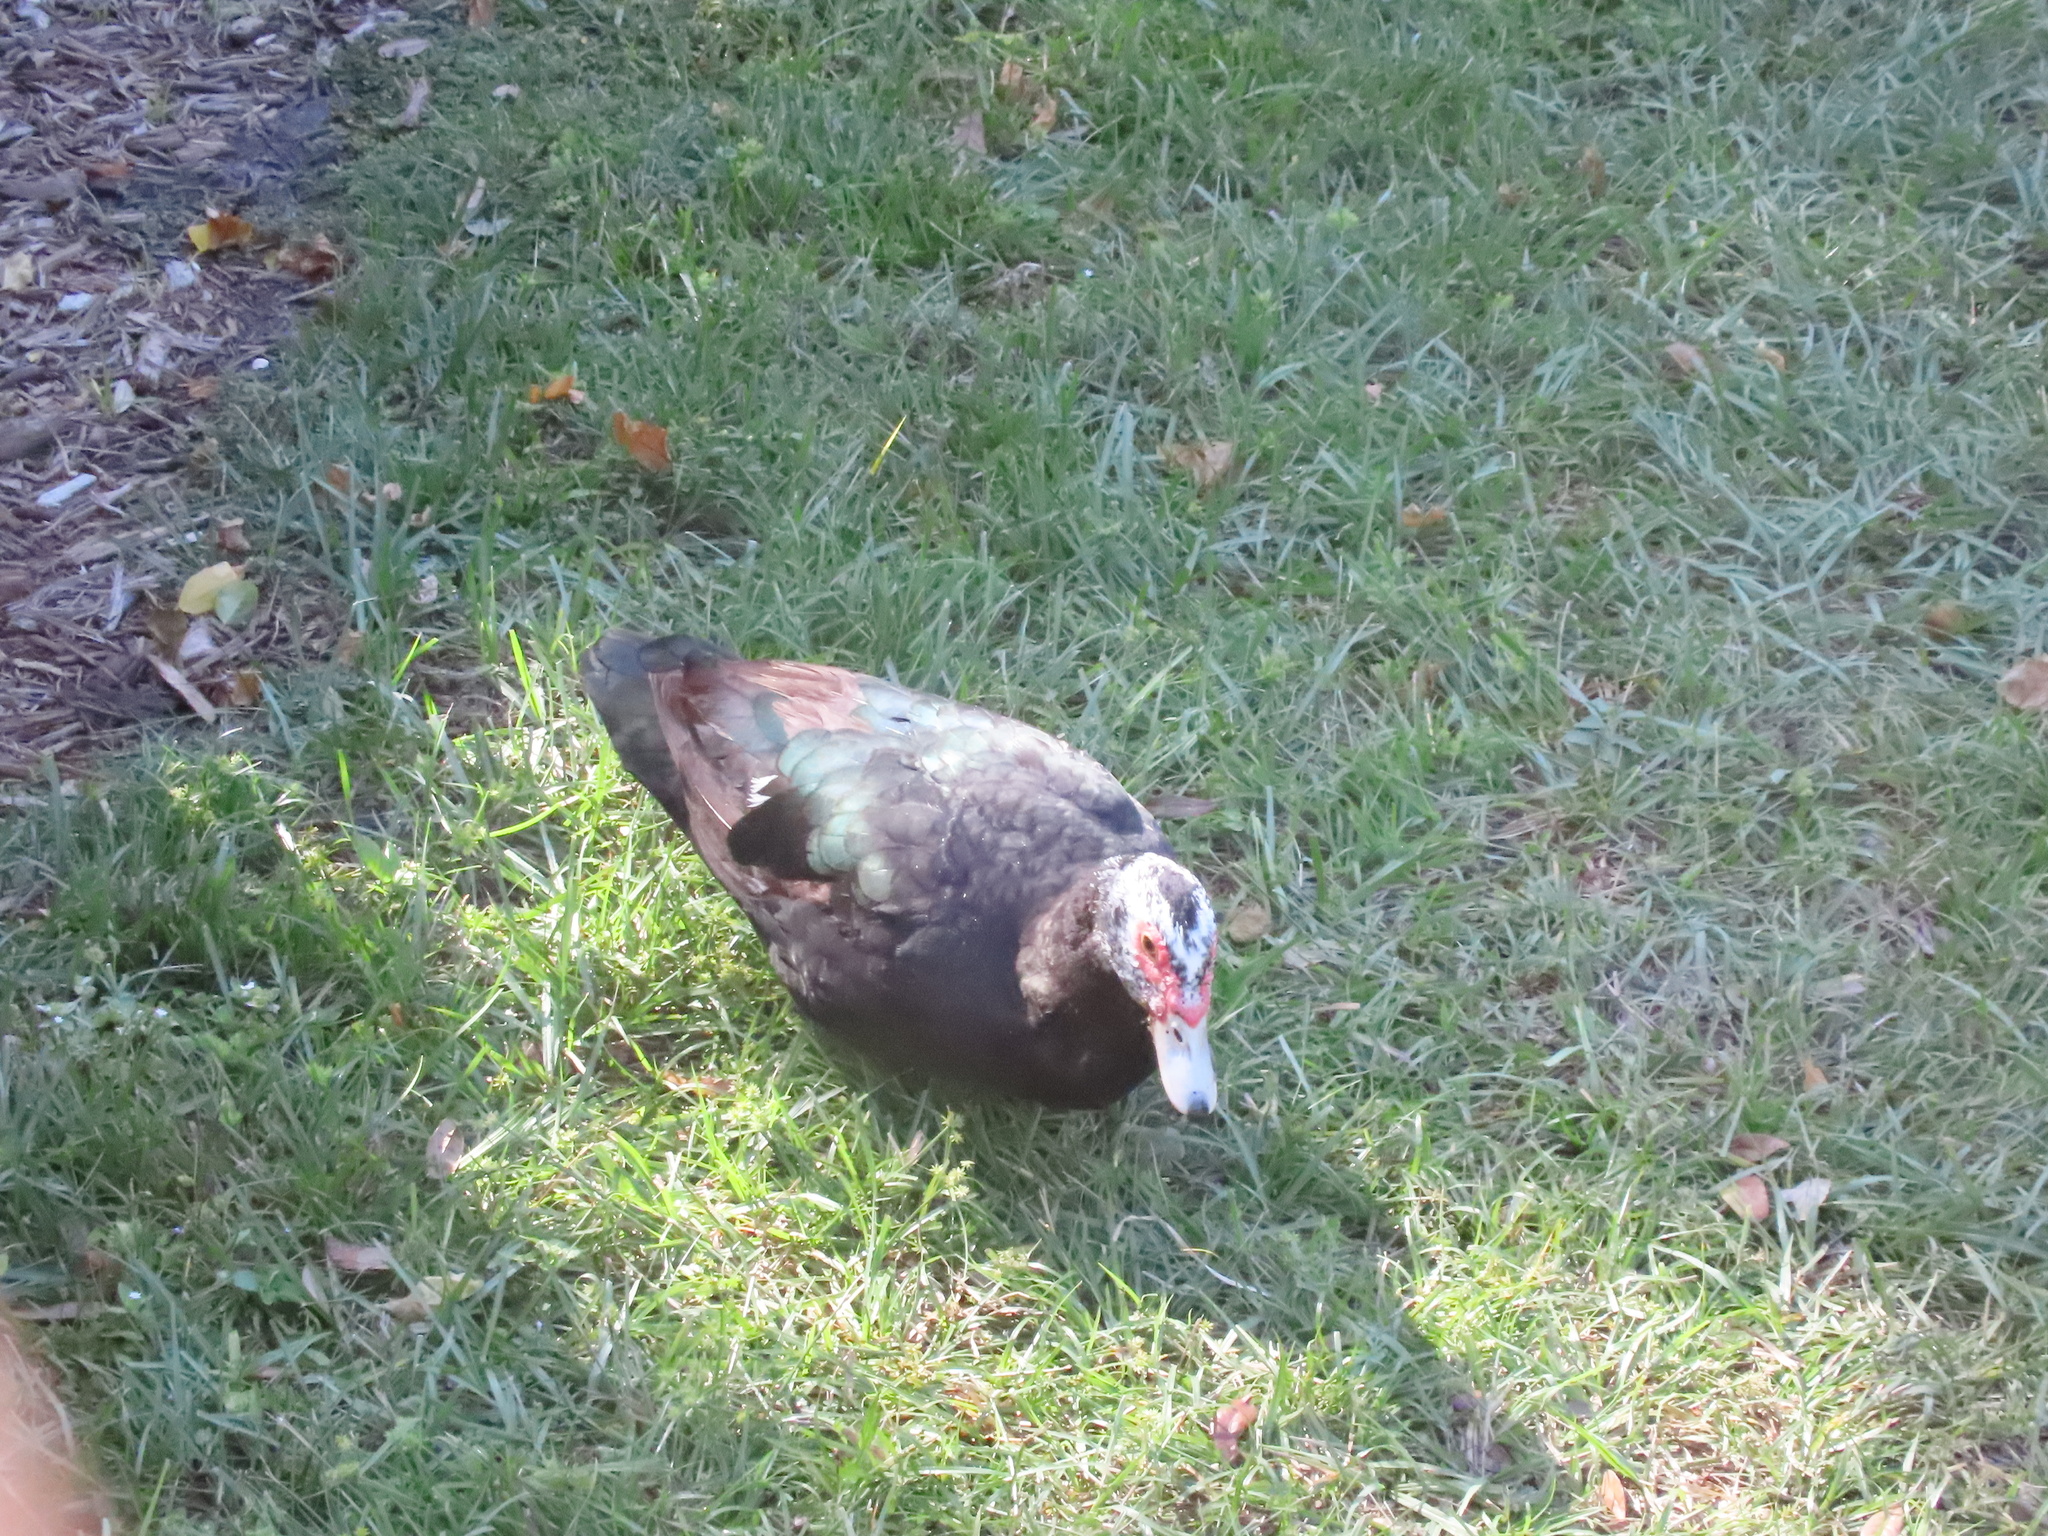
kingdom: Animalia
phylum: Chordata
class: Aves
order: Anseriformes
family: Anatidae
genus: Cairina
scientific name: Cairina moschata
